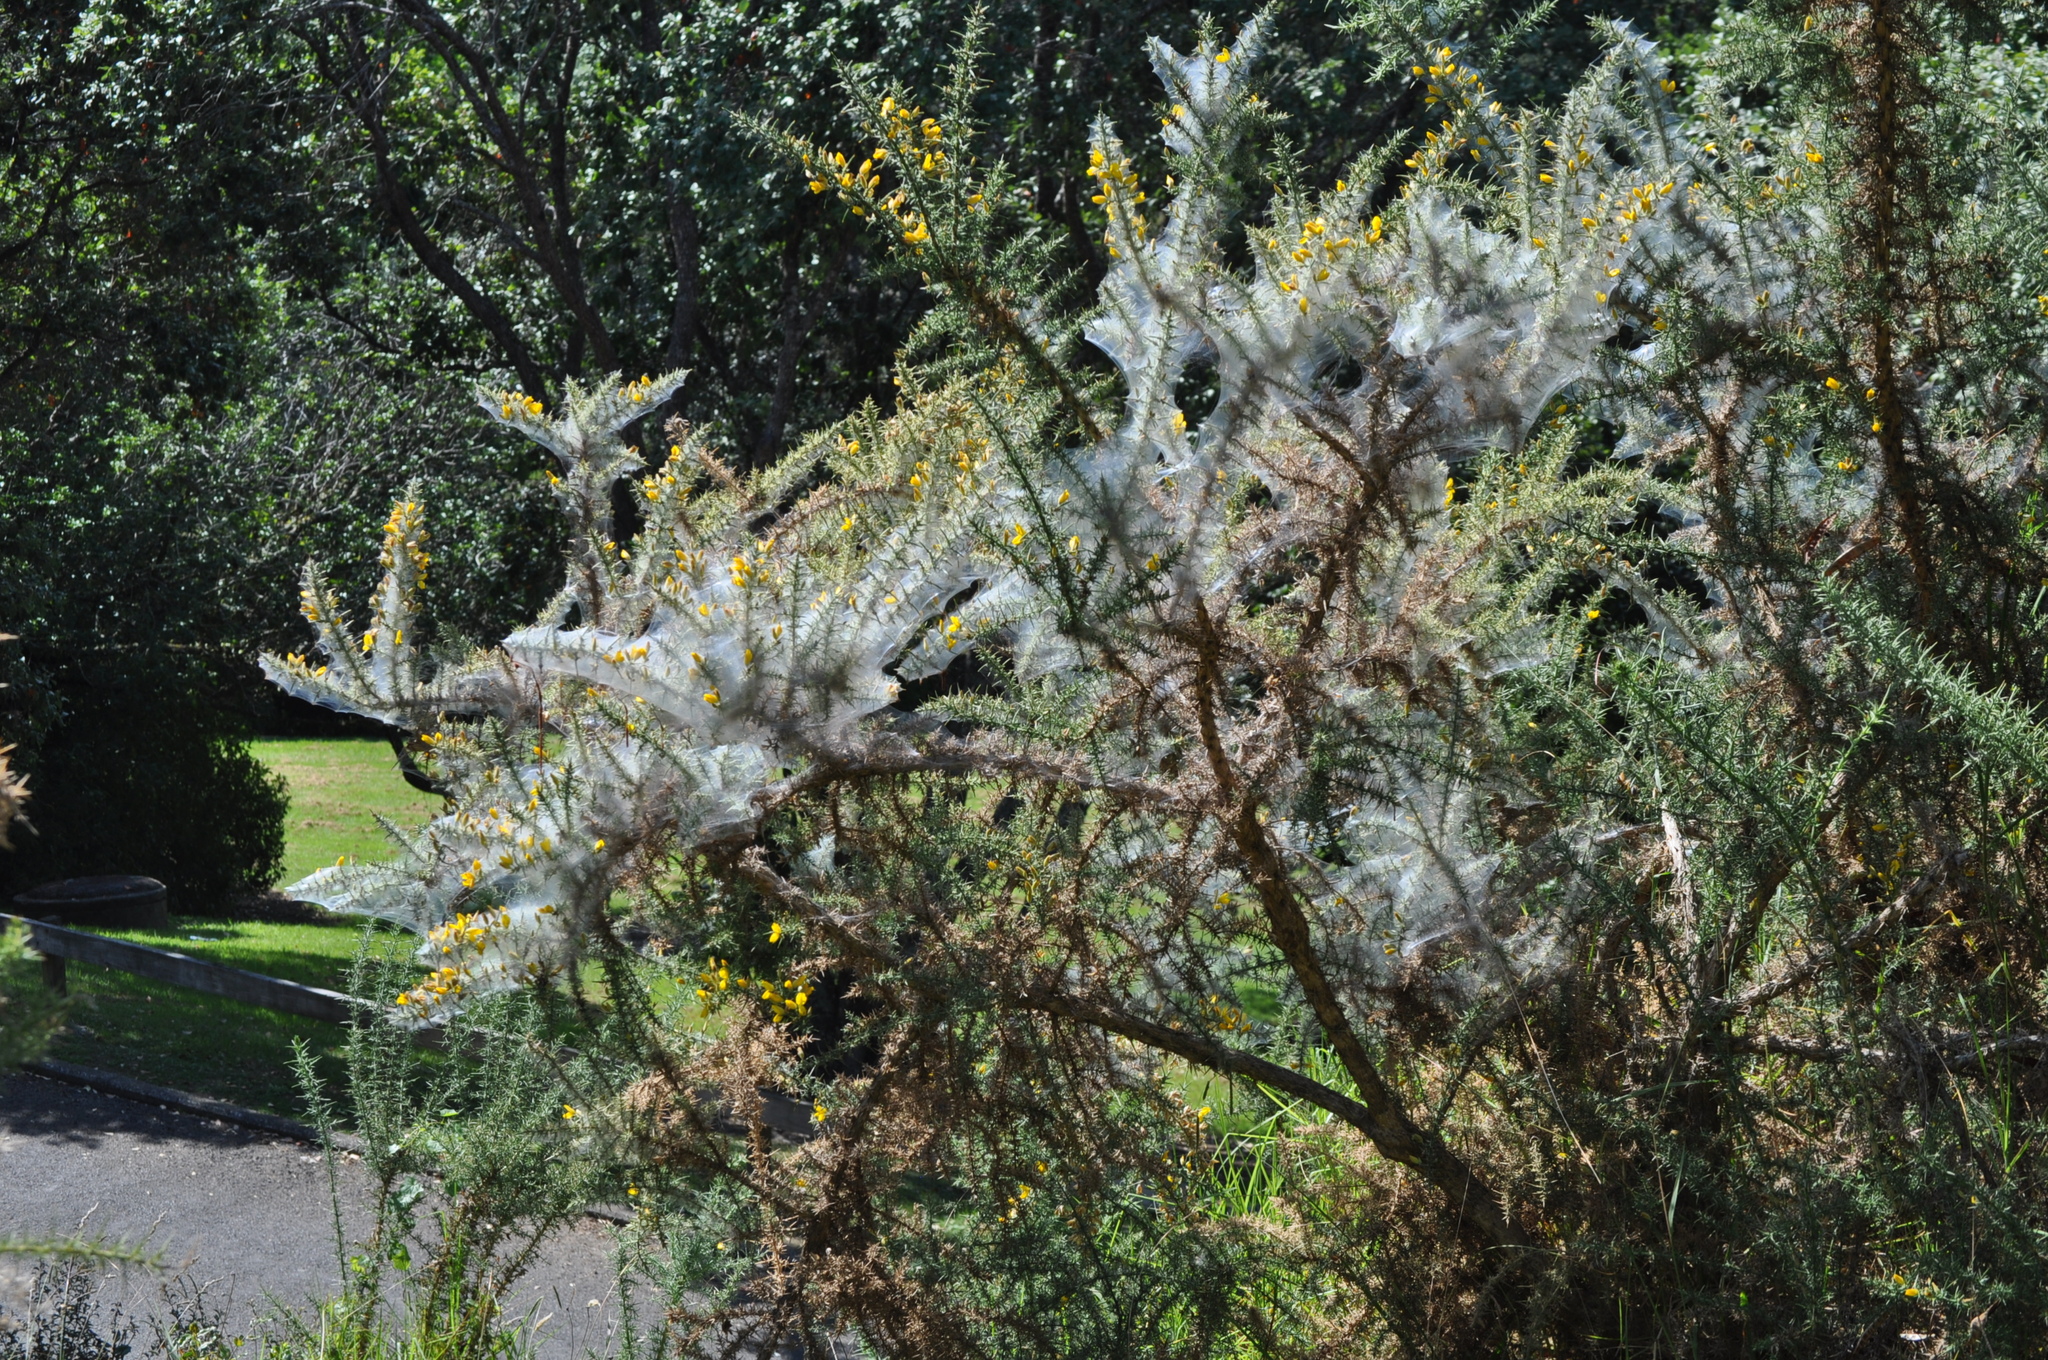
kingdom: Animalia
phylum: Arthropoda
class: Arachnida
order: Trombidiformes
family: Tetranychidae
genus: Tetranychus
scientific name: Tetranychus lintearius
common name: Gorse spider mite
